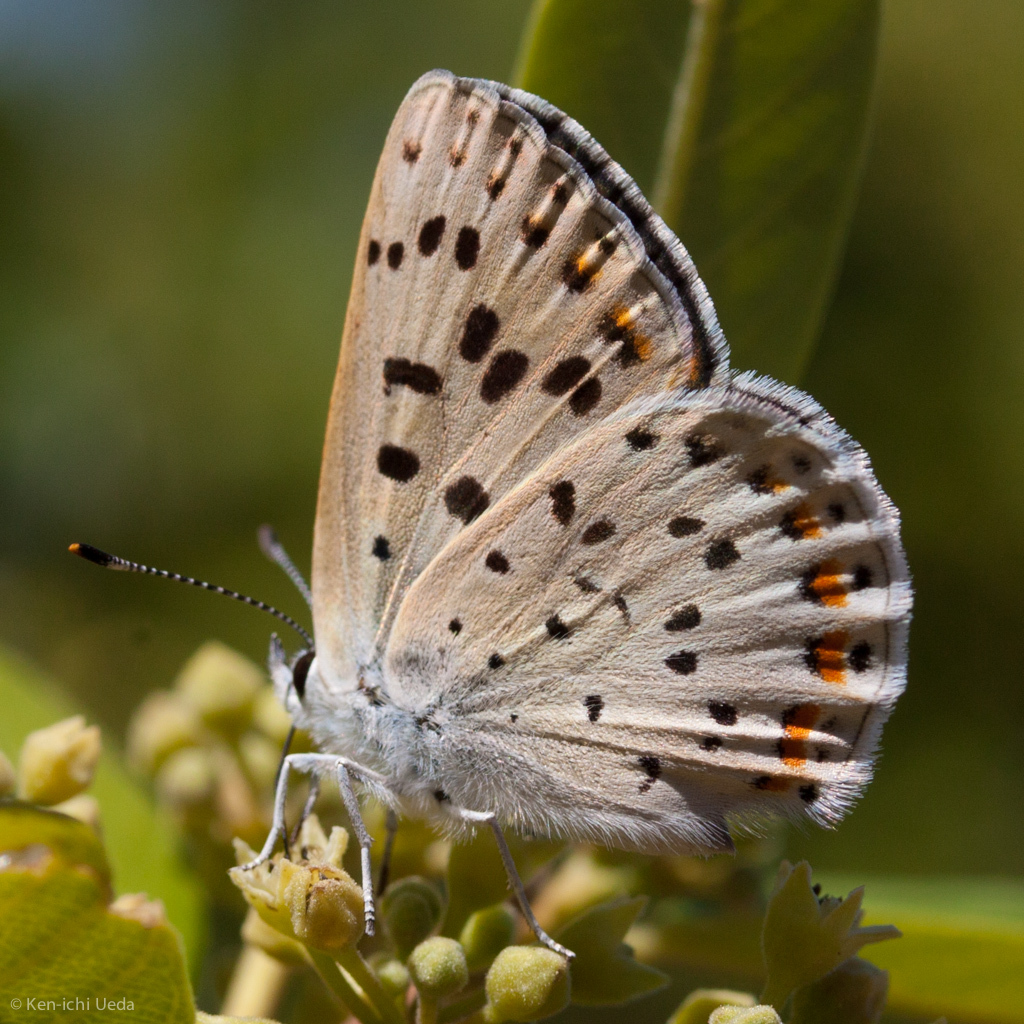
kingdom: Animalia
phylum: Arthropoda
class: Insecta
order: Lepidoptera
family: Lycaenidae
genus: Tharsalea
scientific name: Tharsalea gorgon
